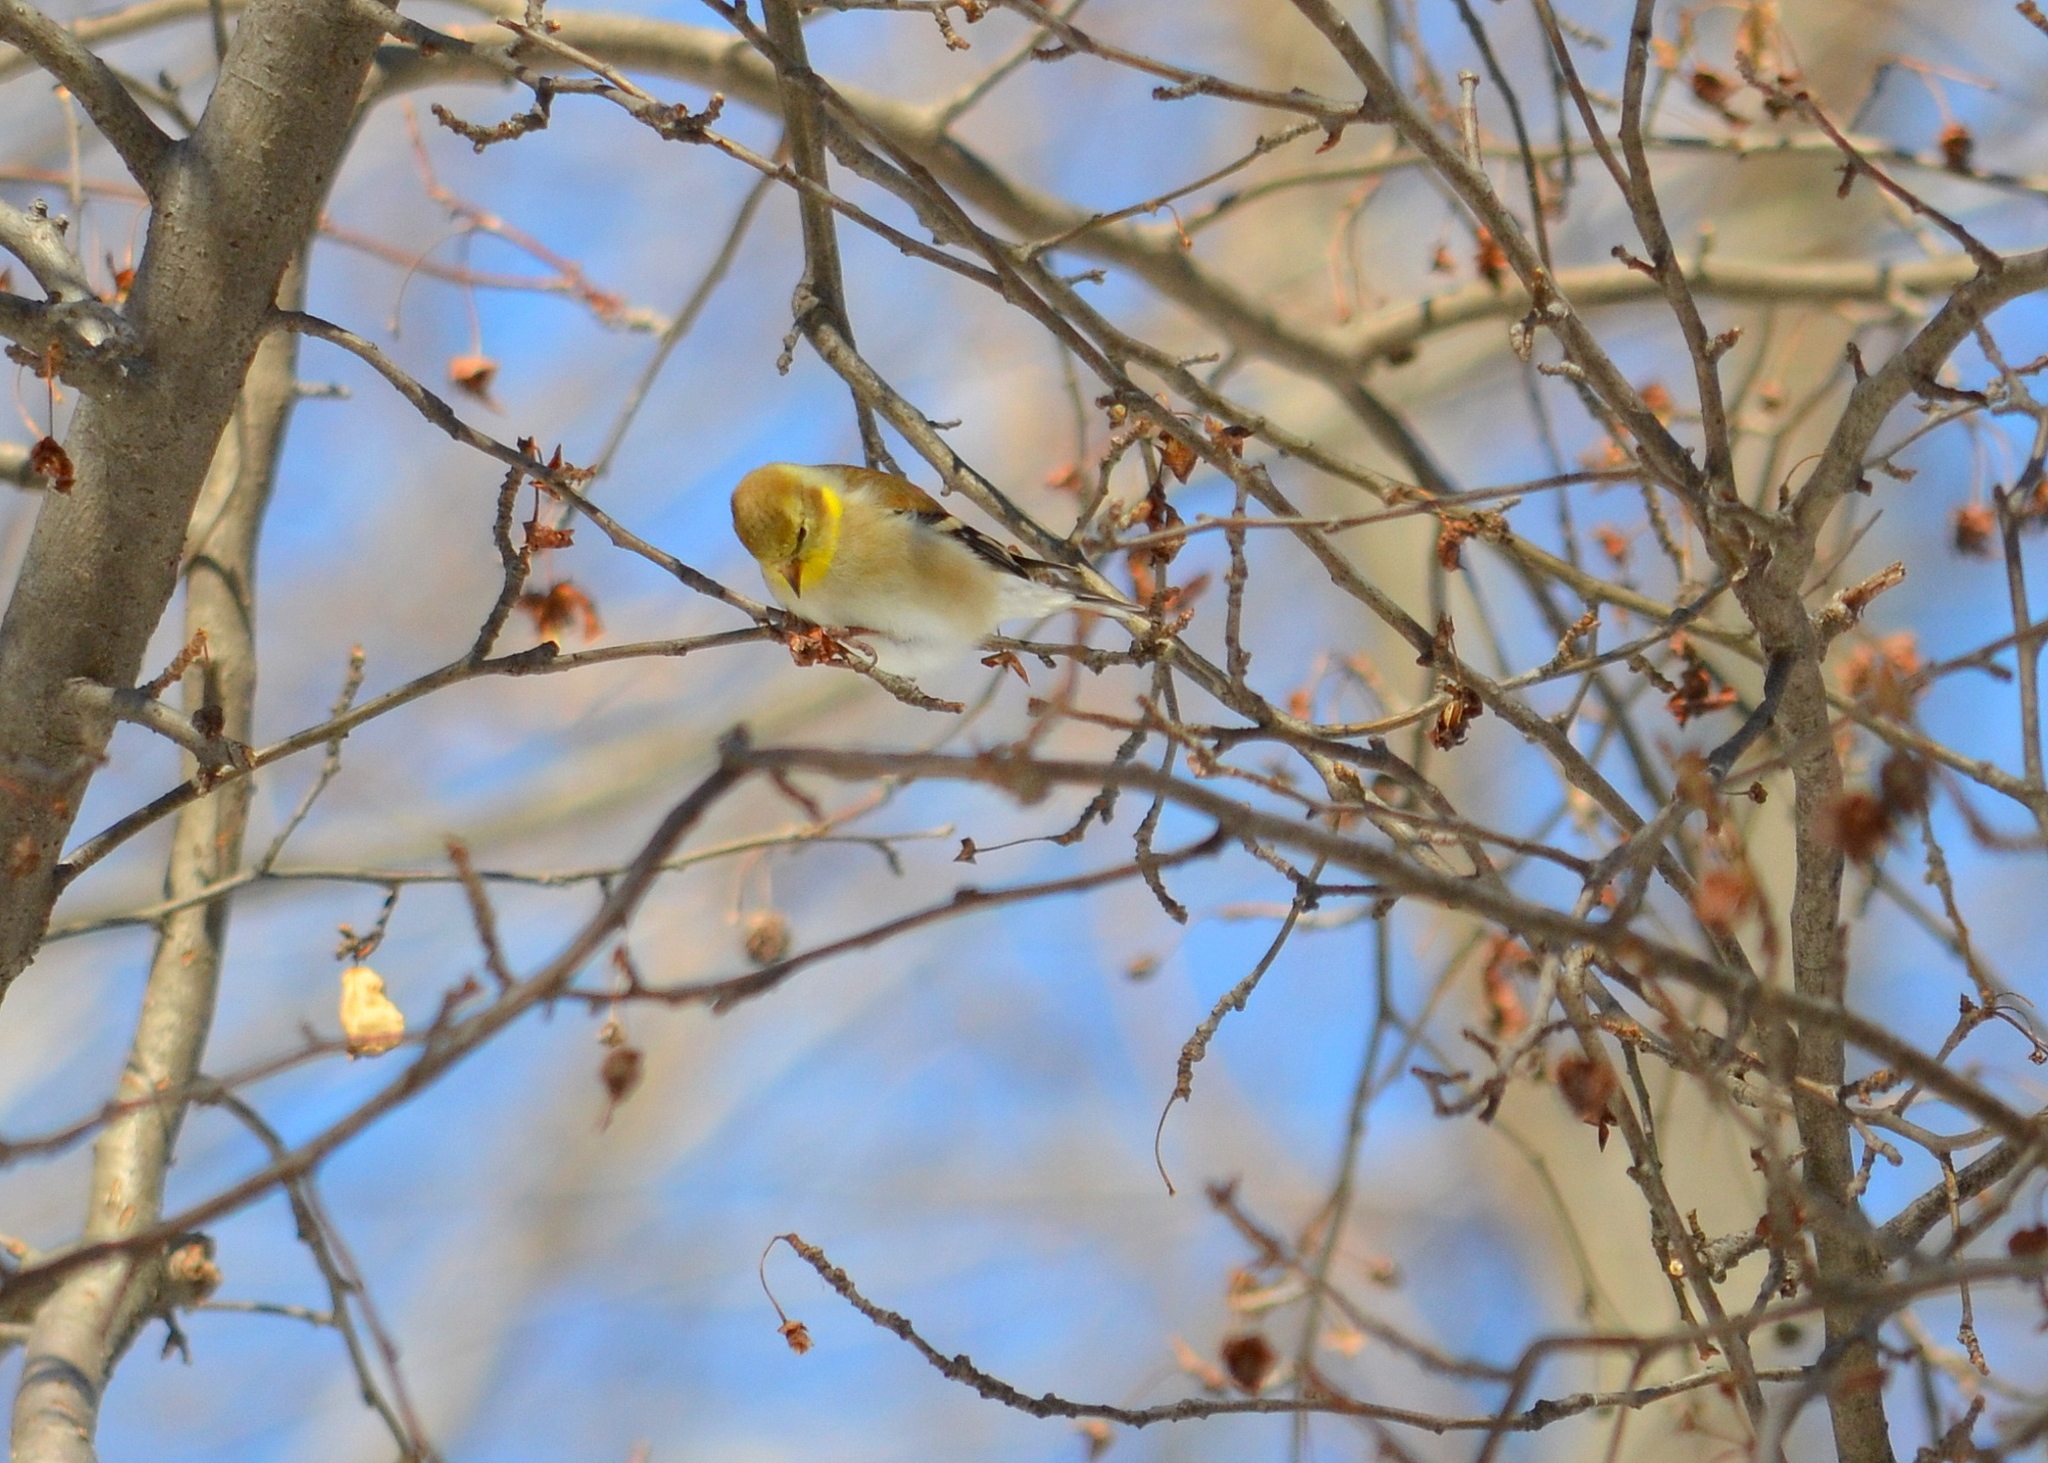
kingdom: Animalia
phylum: Chordata
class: Aves
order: Passeriformes
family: Fringillidae
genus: Spinus
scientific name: Spinus tristis
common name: American goldfinch
